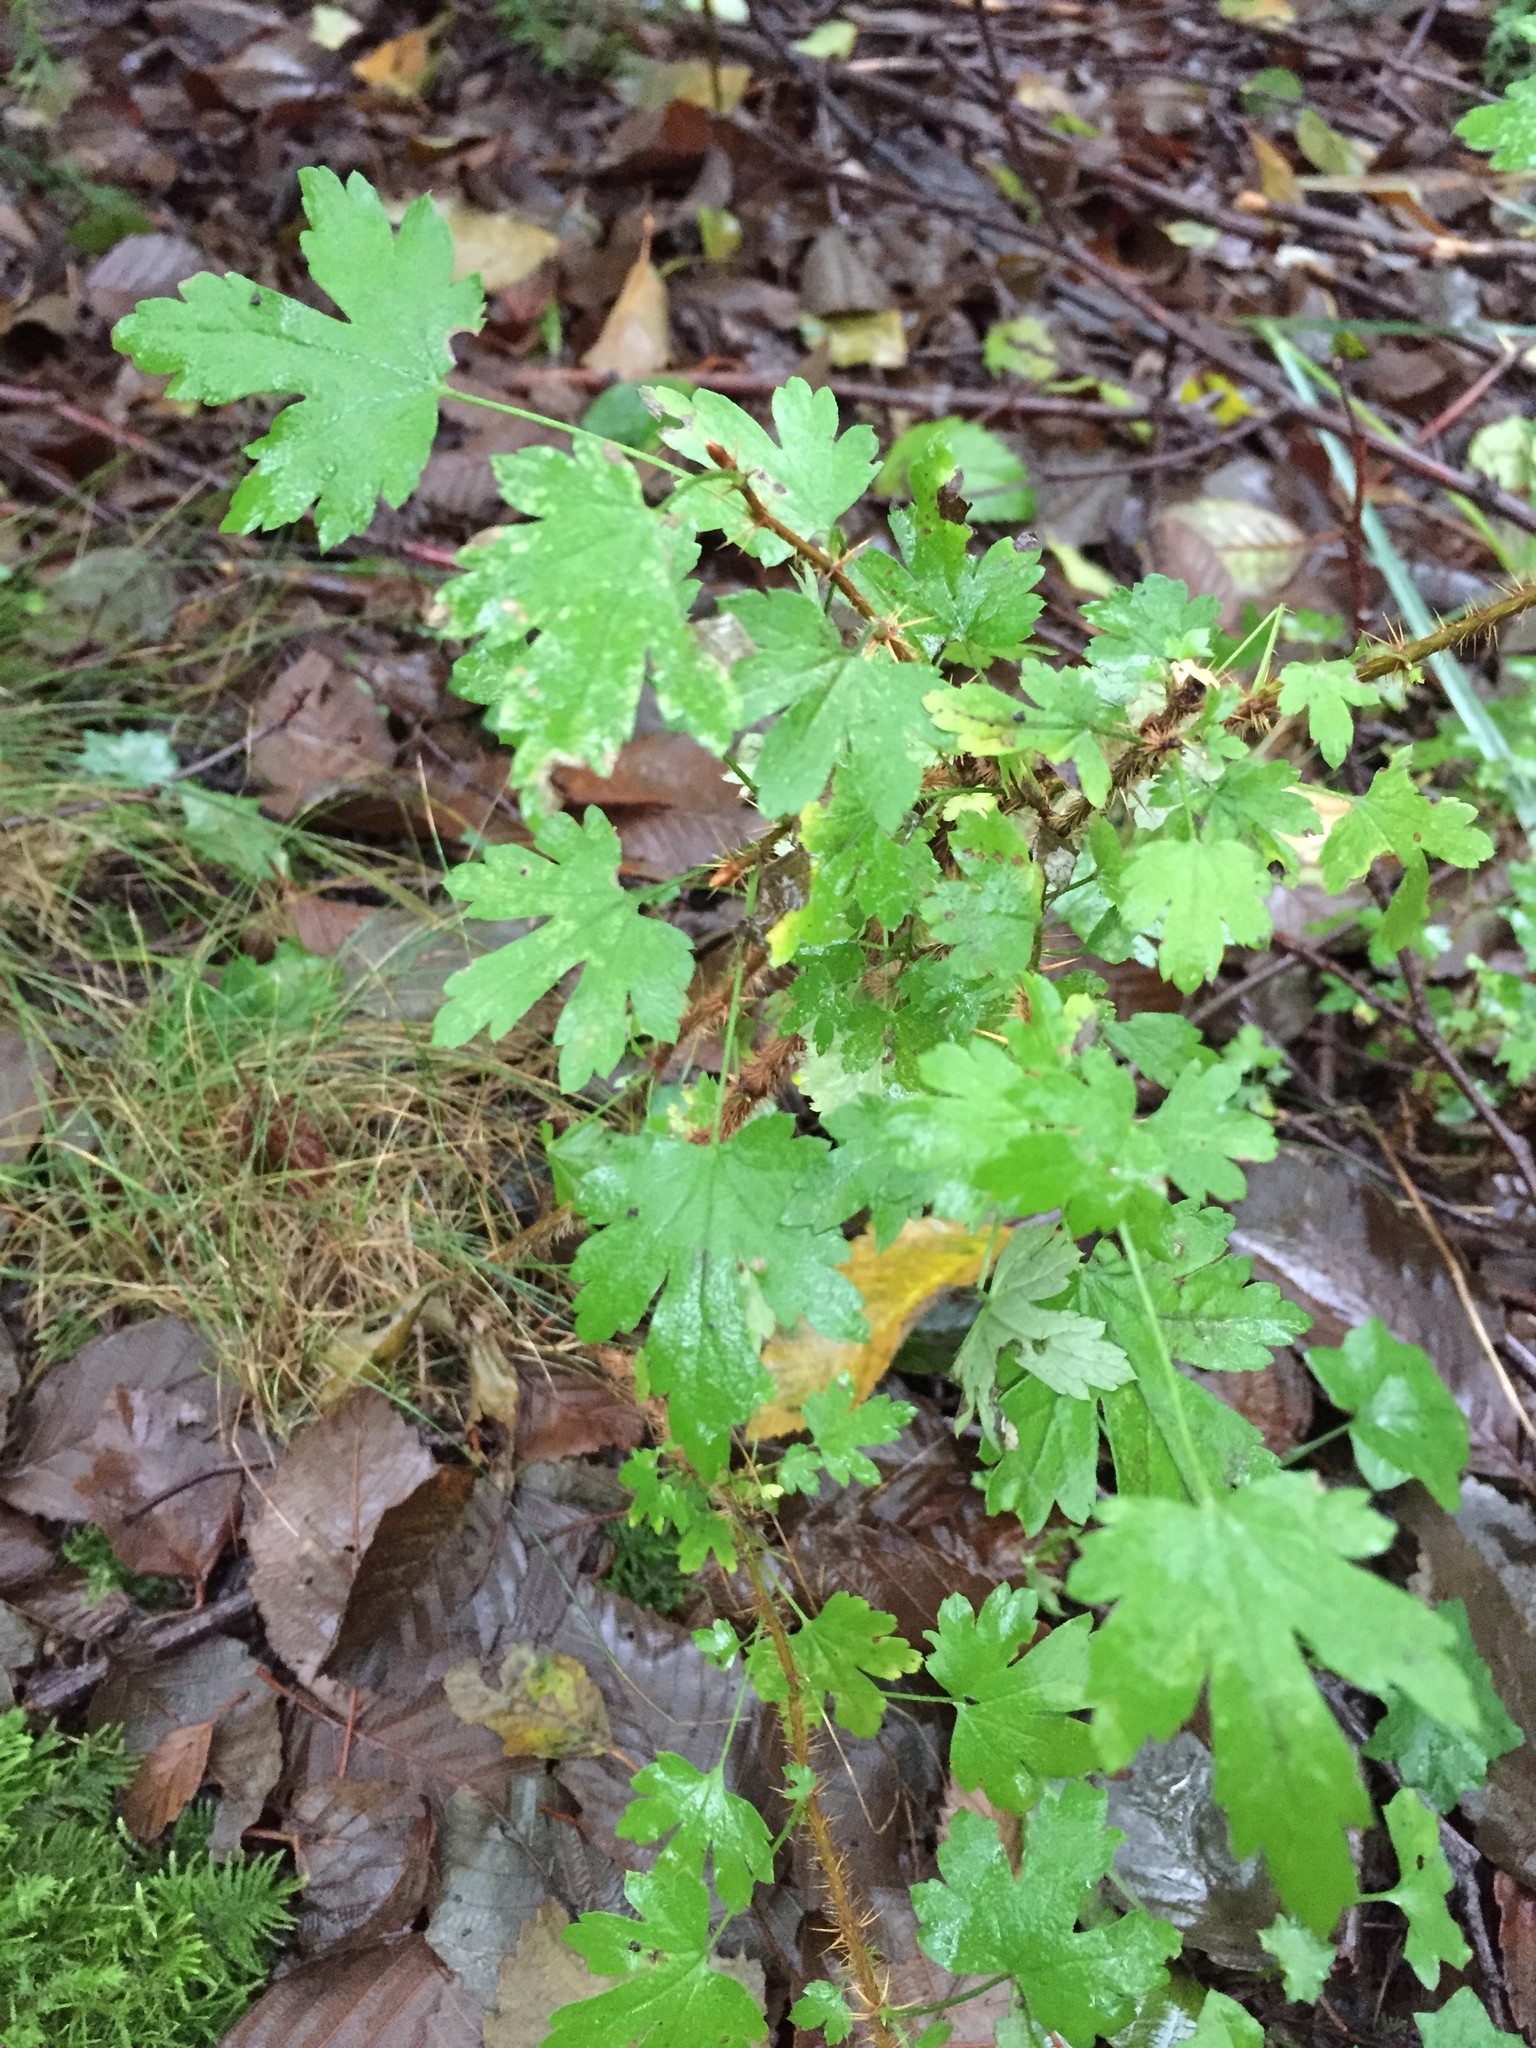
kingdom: Plantae
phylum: Tracheophyta
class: Magnoliopsida
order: Saxifragales
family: Grossulariaceae
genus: Ribes
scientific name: Ribes lacustre
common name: Black gooseberry
